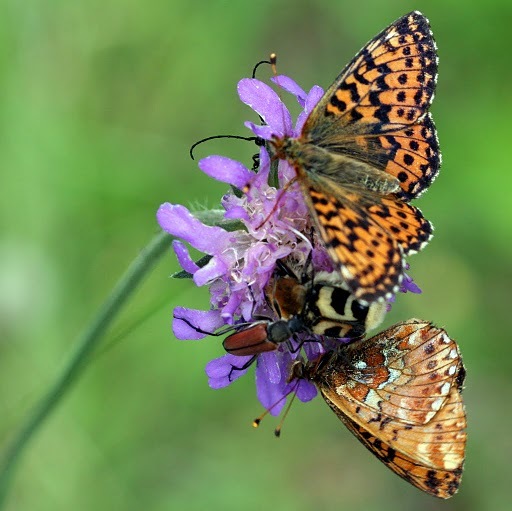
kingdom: Animalia
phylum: Arthropoda
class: Insecta
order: Coleoptera
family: Cerambycidae
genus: Anastrangalia
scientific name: Anastrangalia reyi
